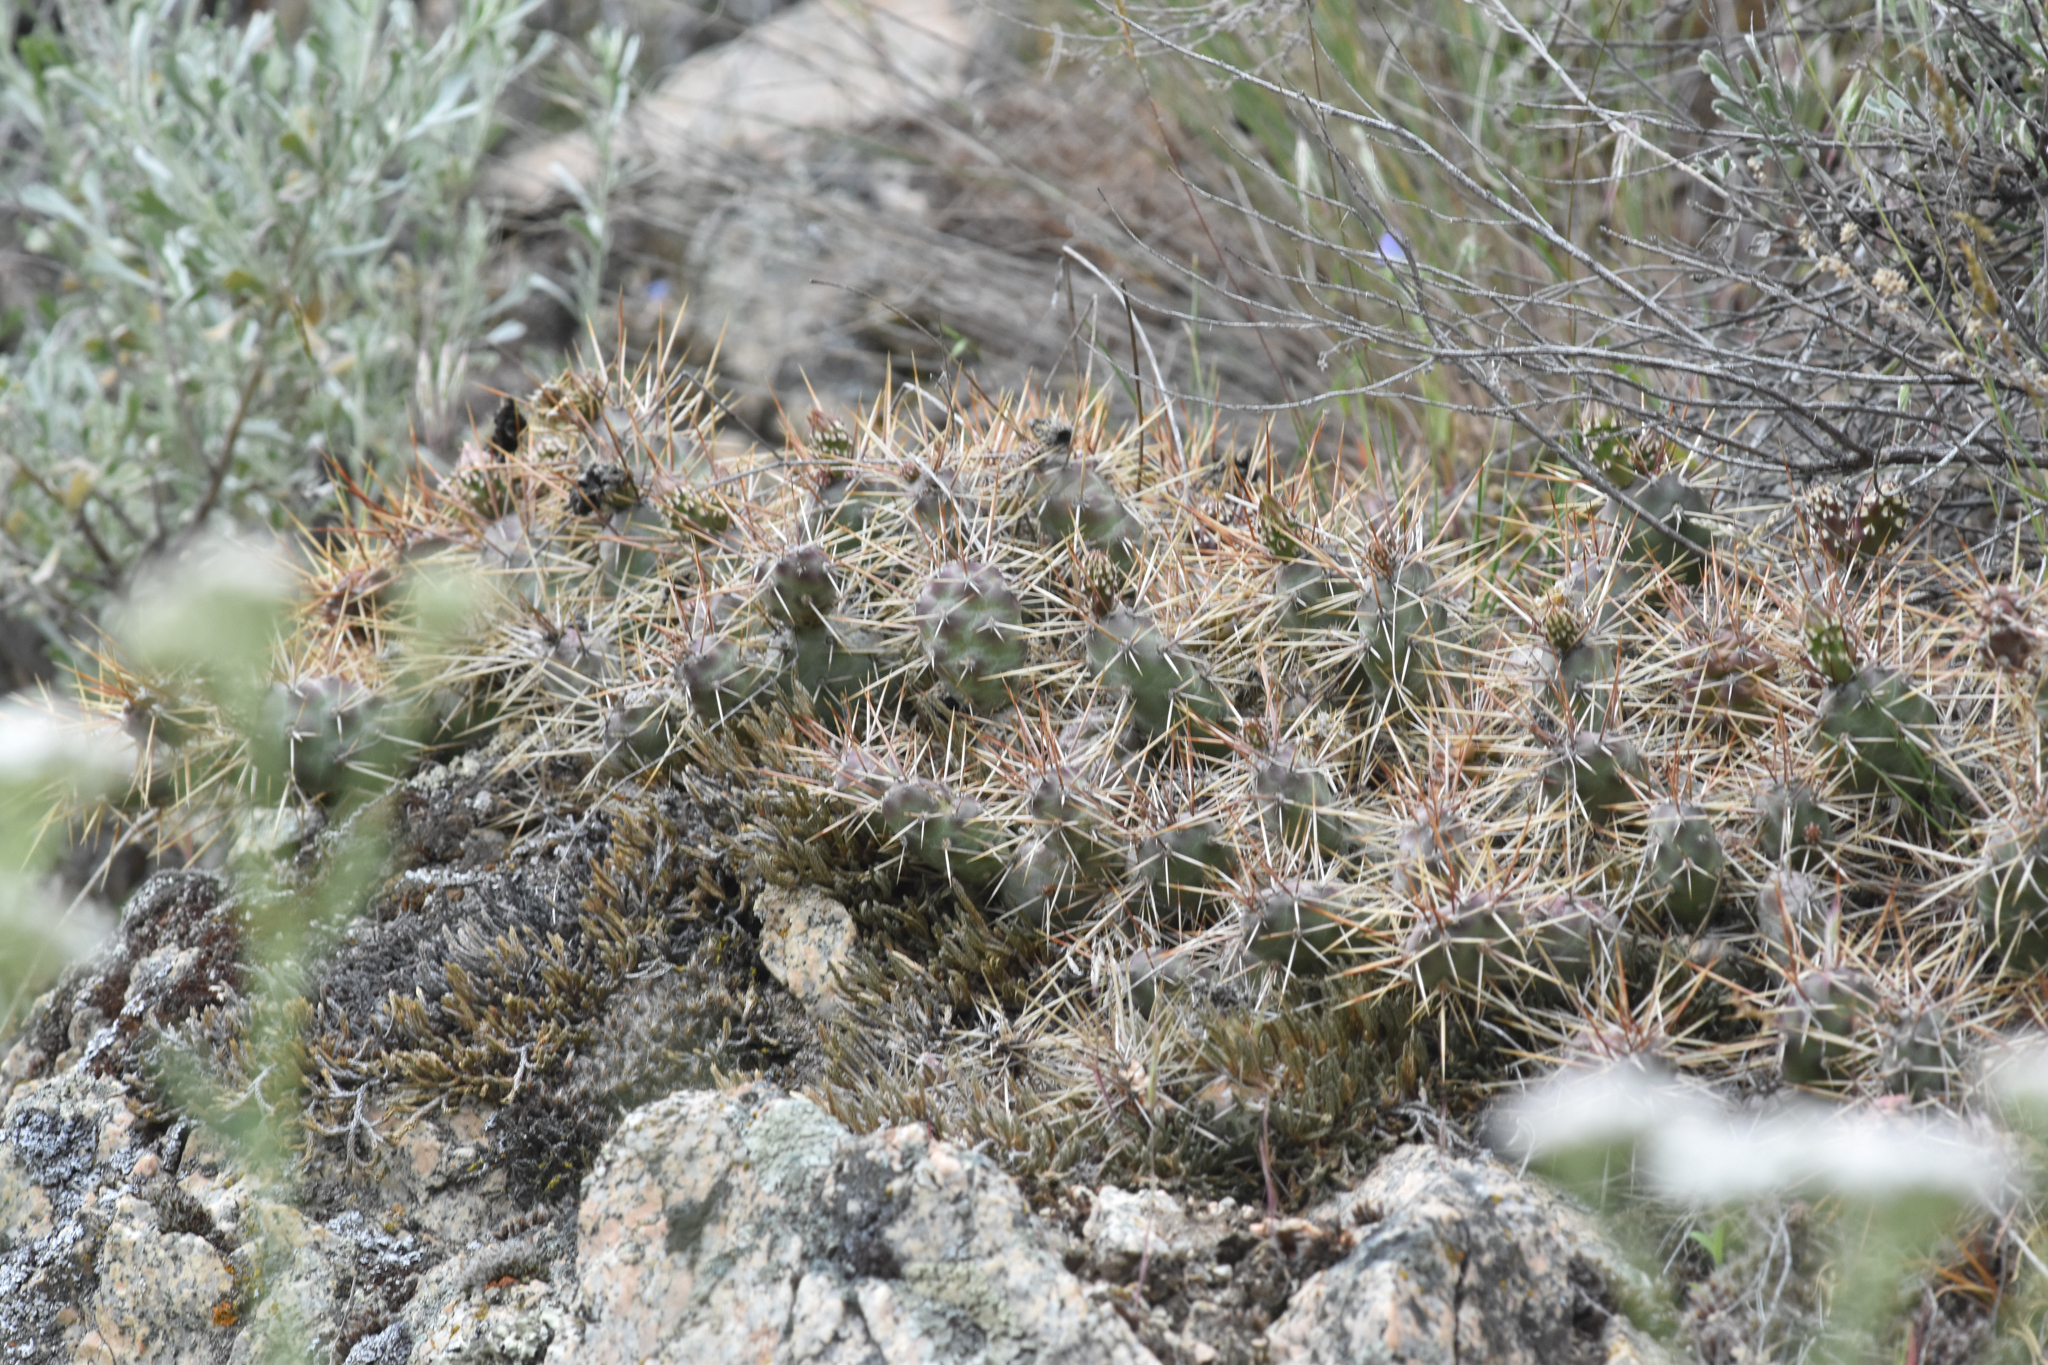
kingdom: Plantae
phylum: Tracheophyta
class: Magnoliopsida
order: Caryophyllales
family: Cactaceae
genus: Opuntia
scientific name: Opuntia fragilis
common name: Brittle cactus
